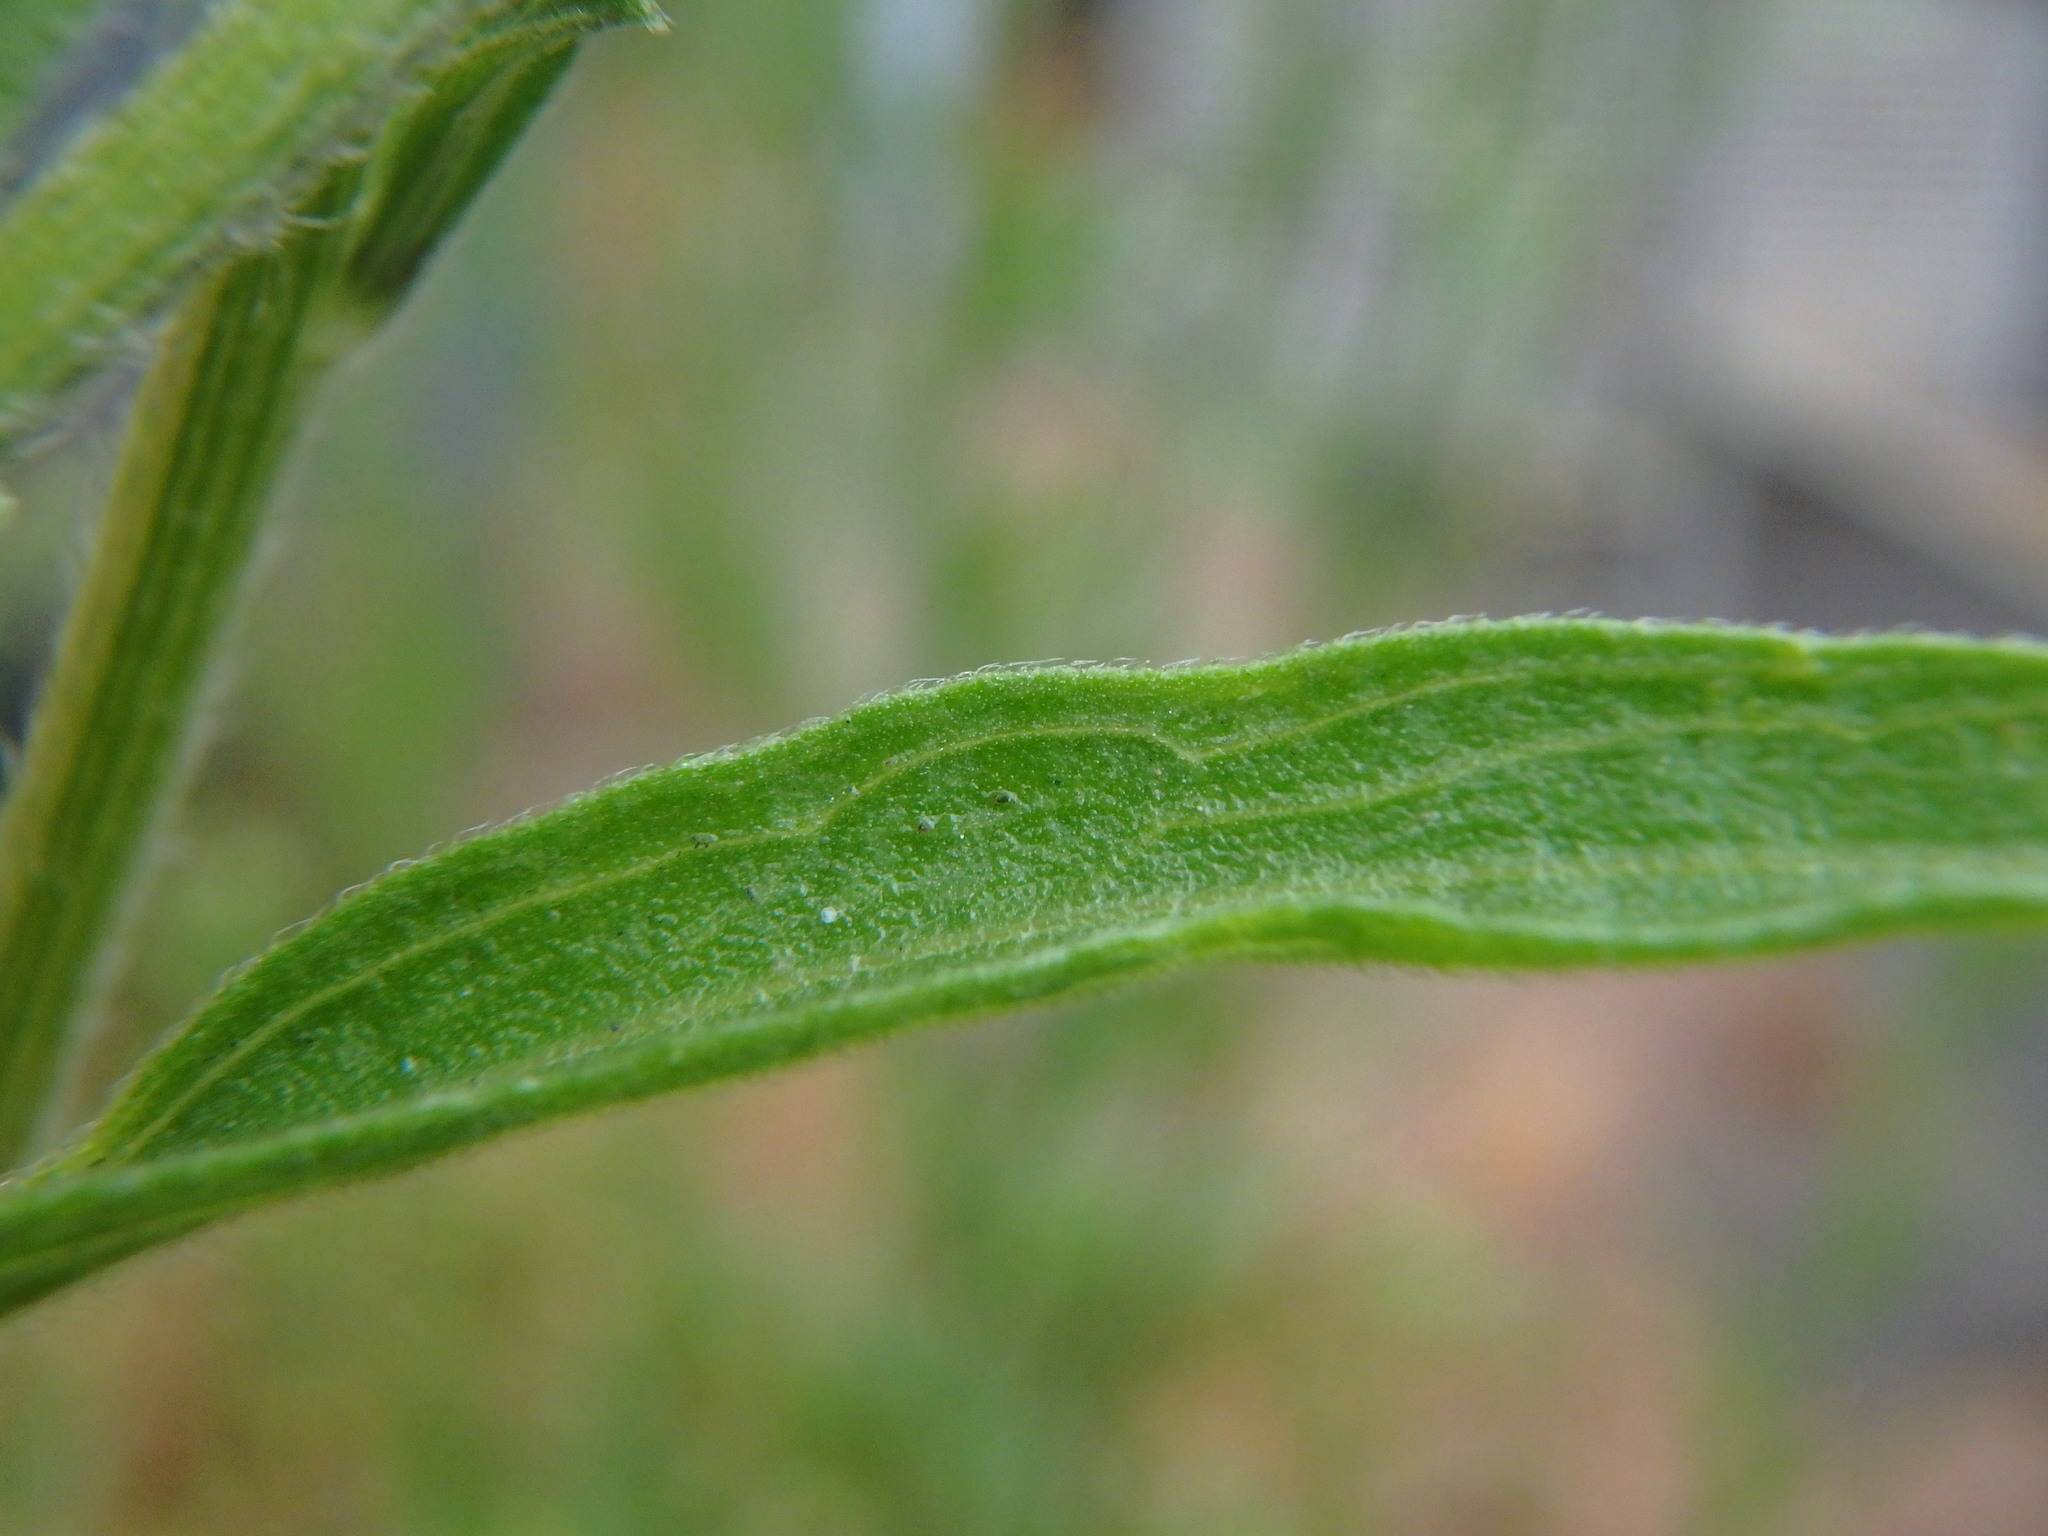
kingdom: Plantae
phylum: Tracheophyta
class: Magnoliopsida
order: Asterales
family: Asteraceae
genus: Erigeron
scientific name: Erigeron sumatrensis
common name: Daisy
